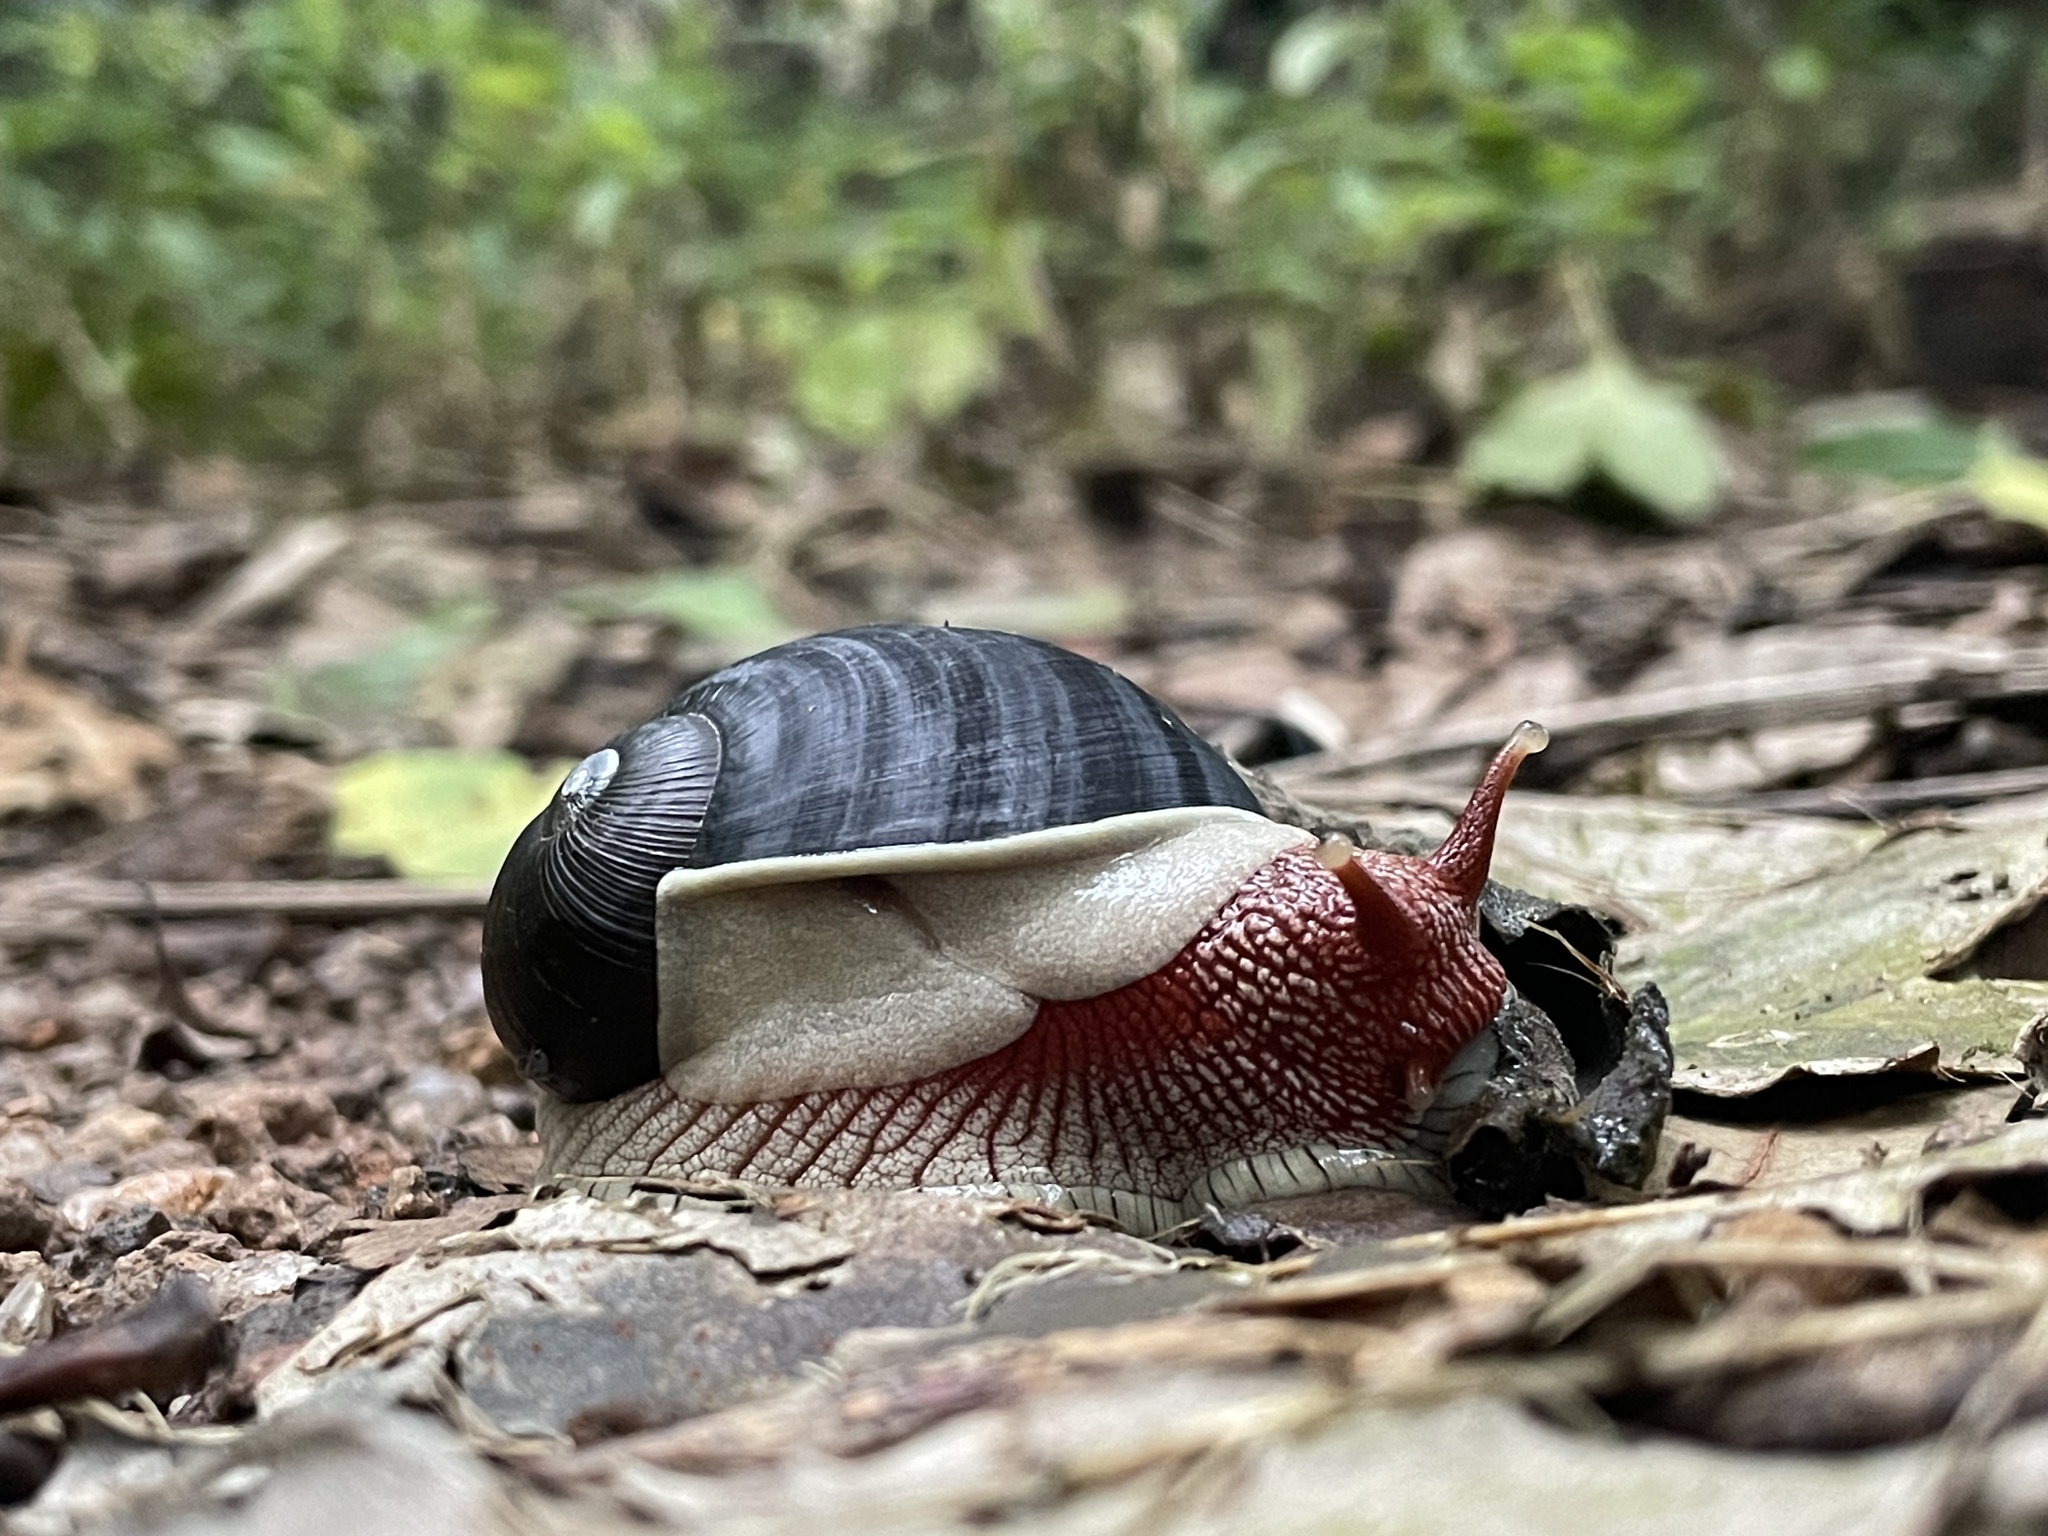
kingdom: Animalia
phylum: Mollusca
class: Gastropoda
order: Stylommatophora
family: Ariophantidae
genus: Indrella
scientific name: Indrella ampulla
